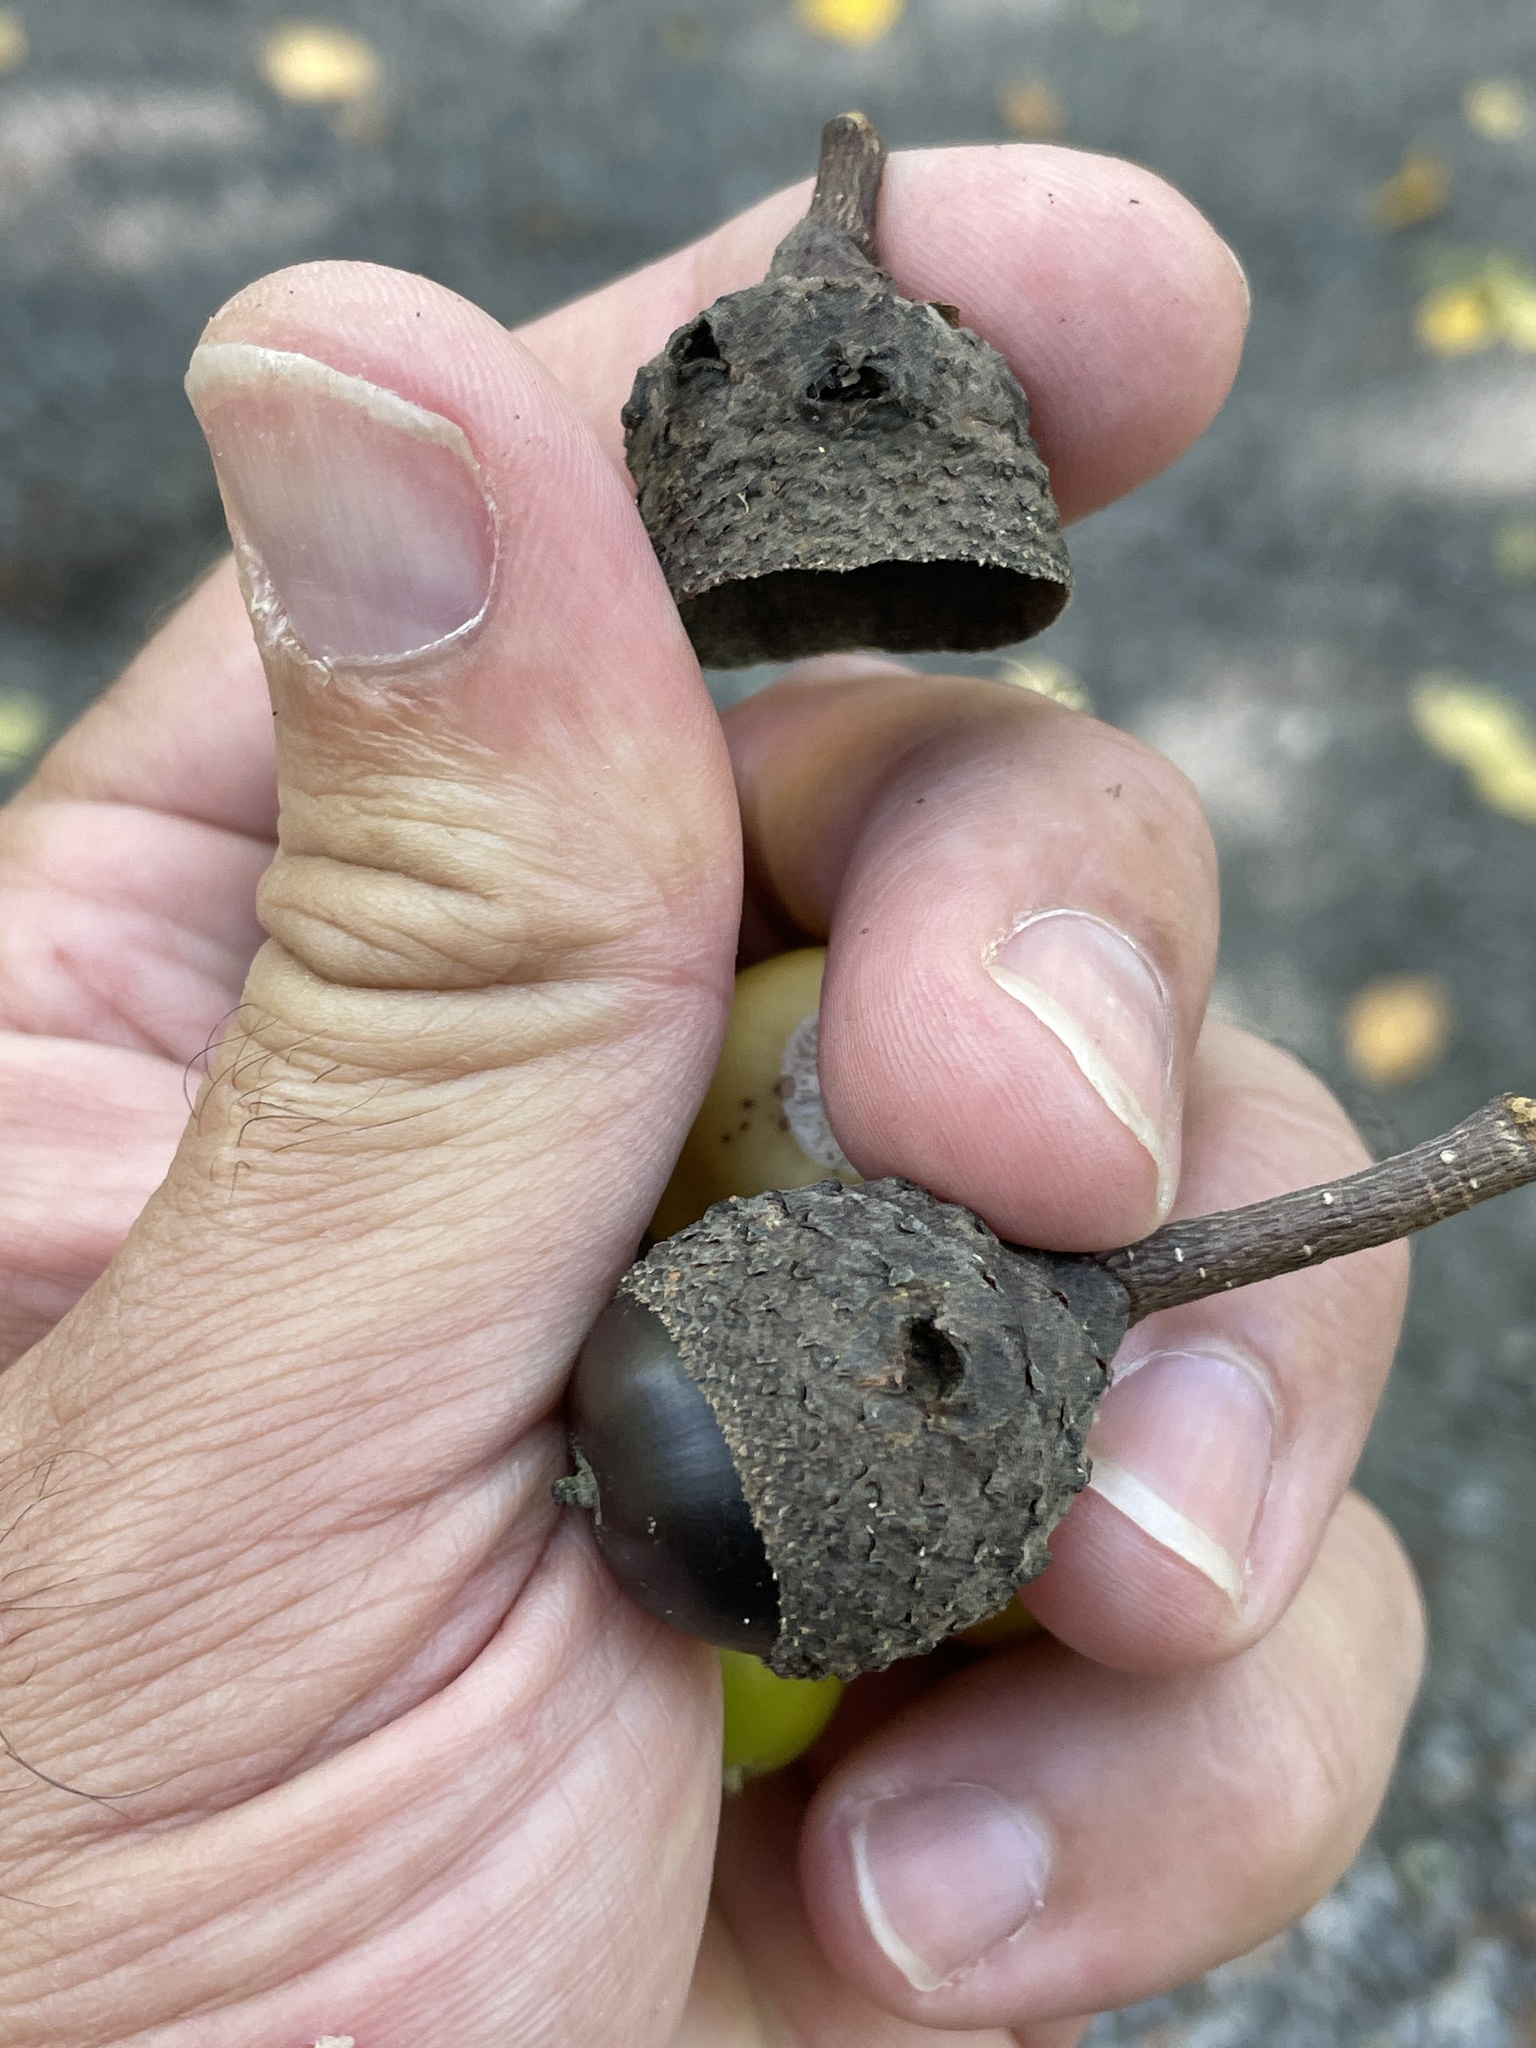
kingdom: Animalia
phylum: Arthropoda
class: Insecta
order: Hymenoptera
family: Cynipidae
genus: Callirhytis
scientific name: Callirhytis glandium
